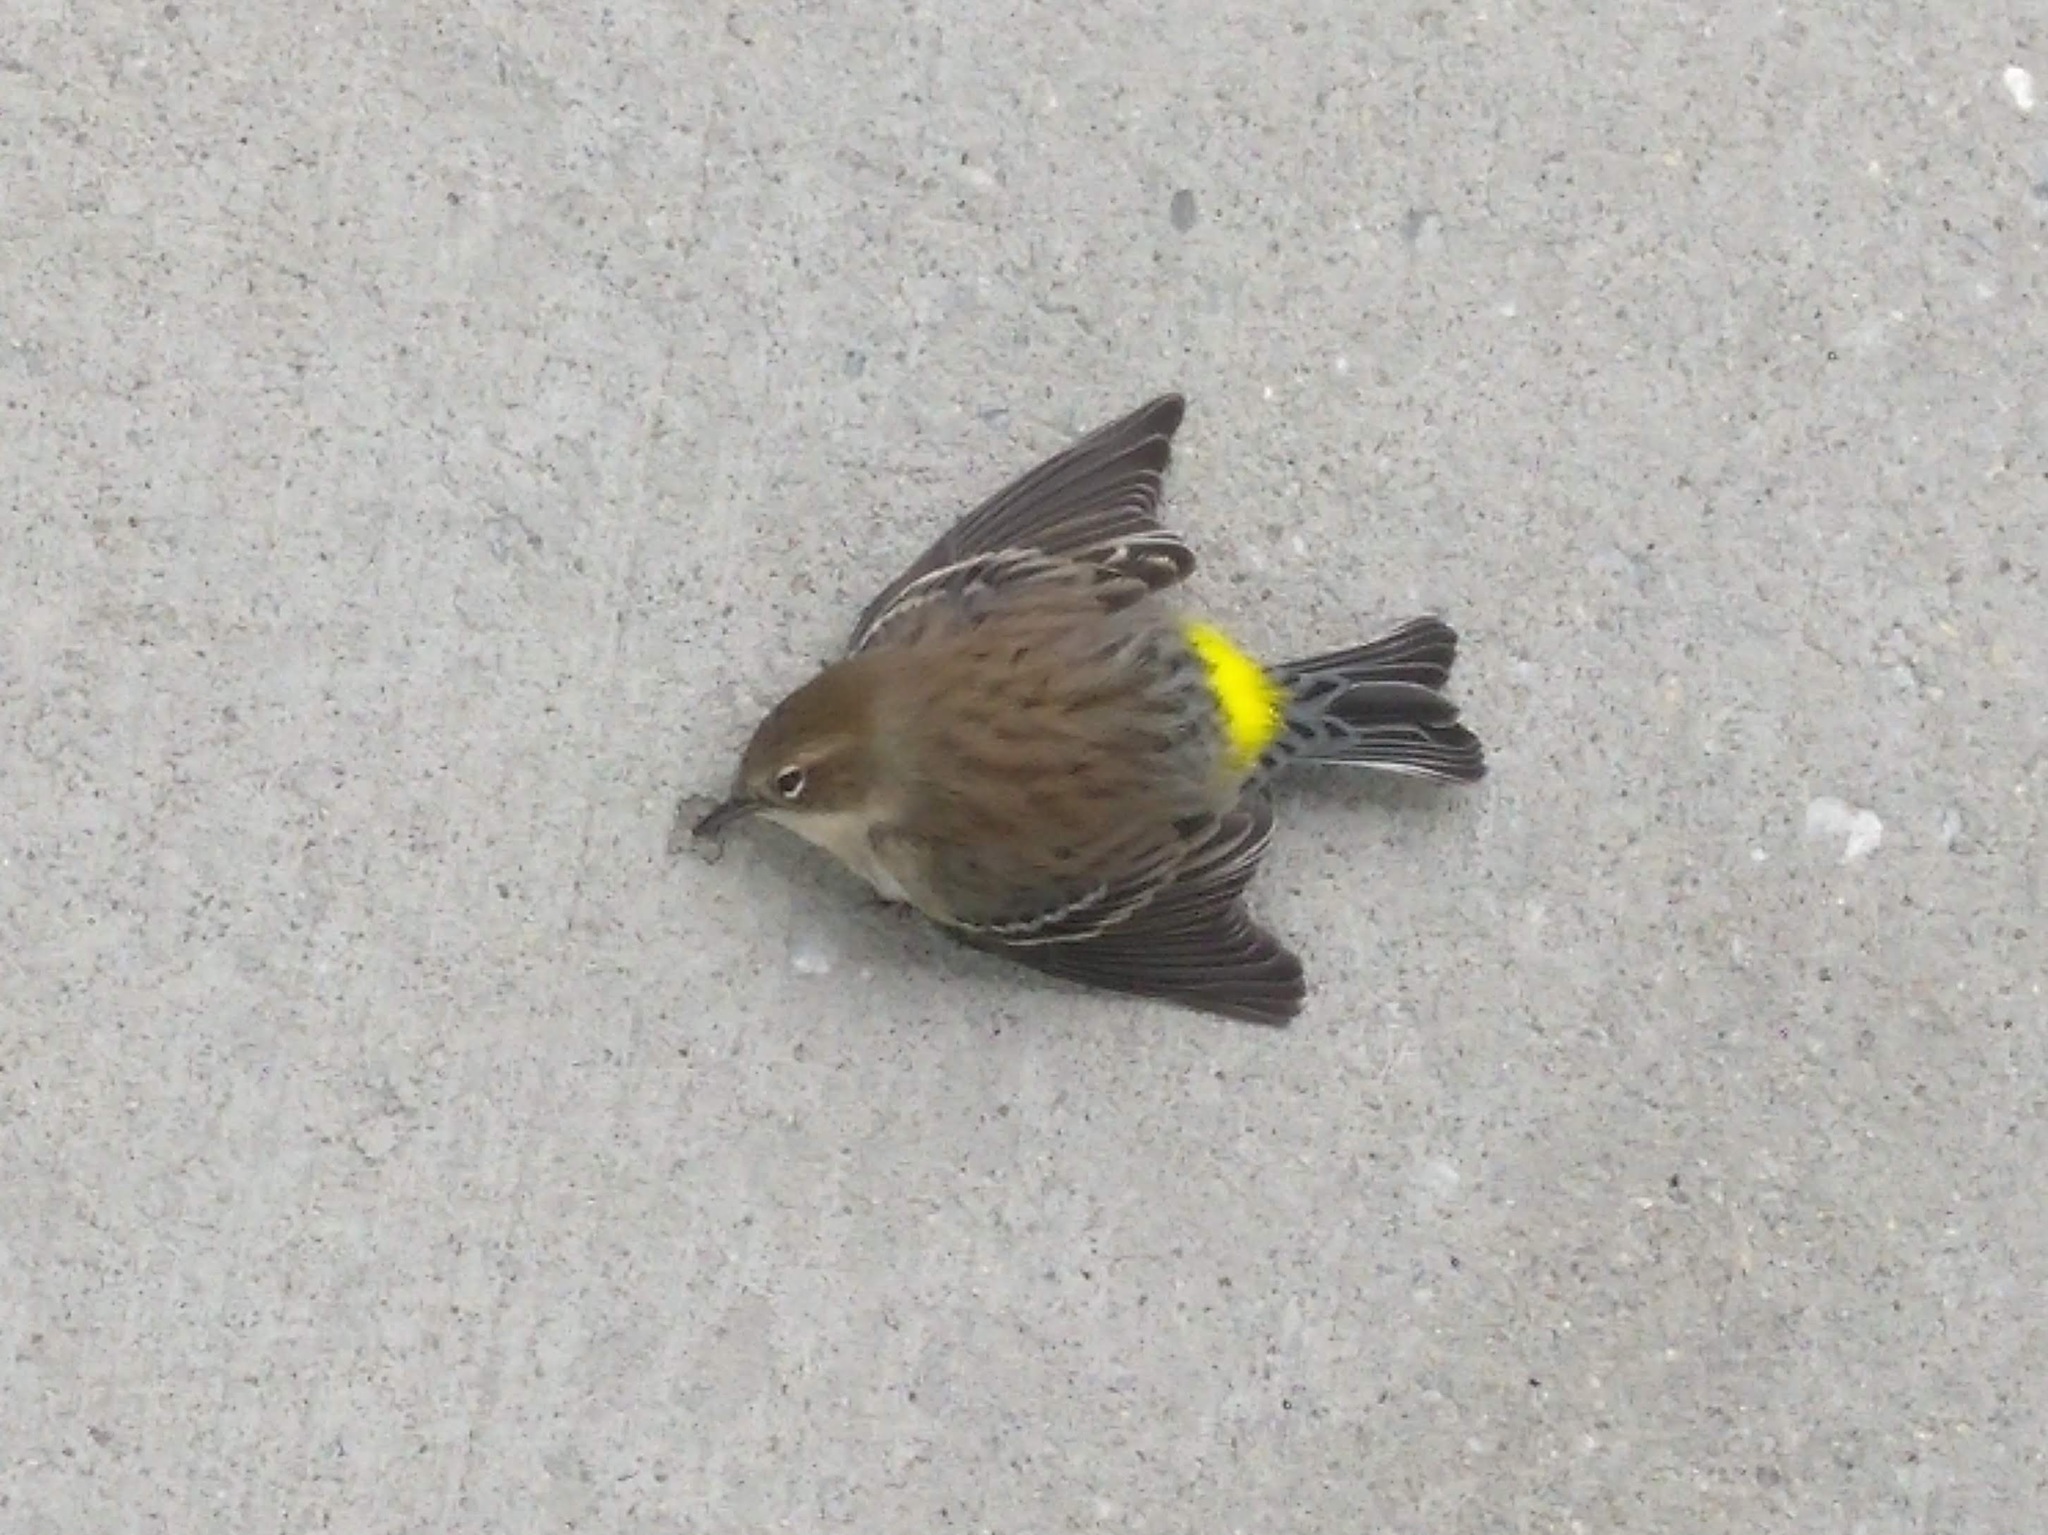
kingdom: Animalia
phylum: Chordata
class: Aves
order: Passeriformes
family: Parulidae
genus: Setophaga
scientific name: Setophaga coronata
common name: Myrtle warbler
